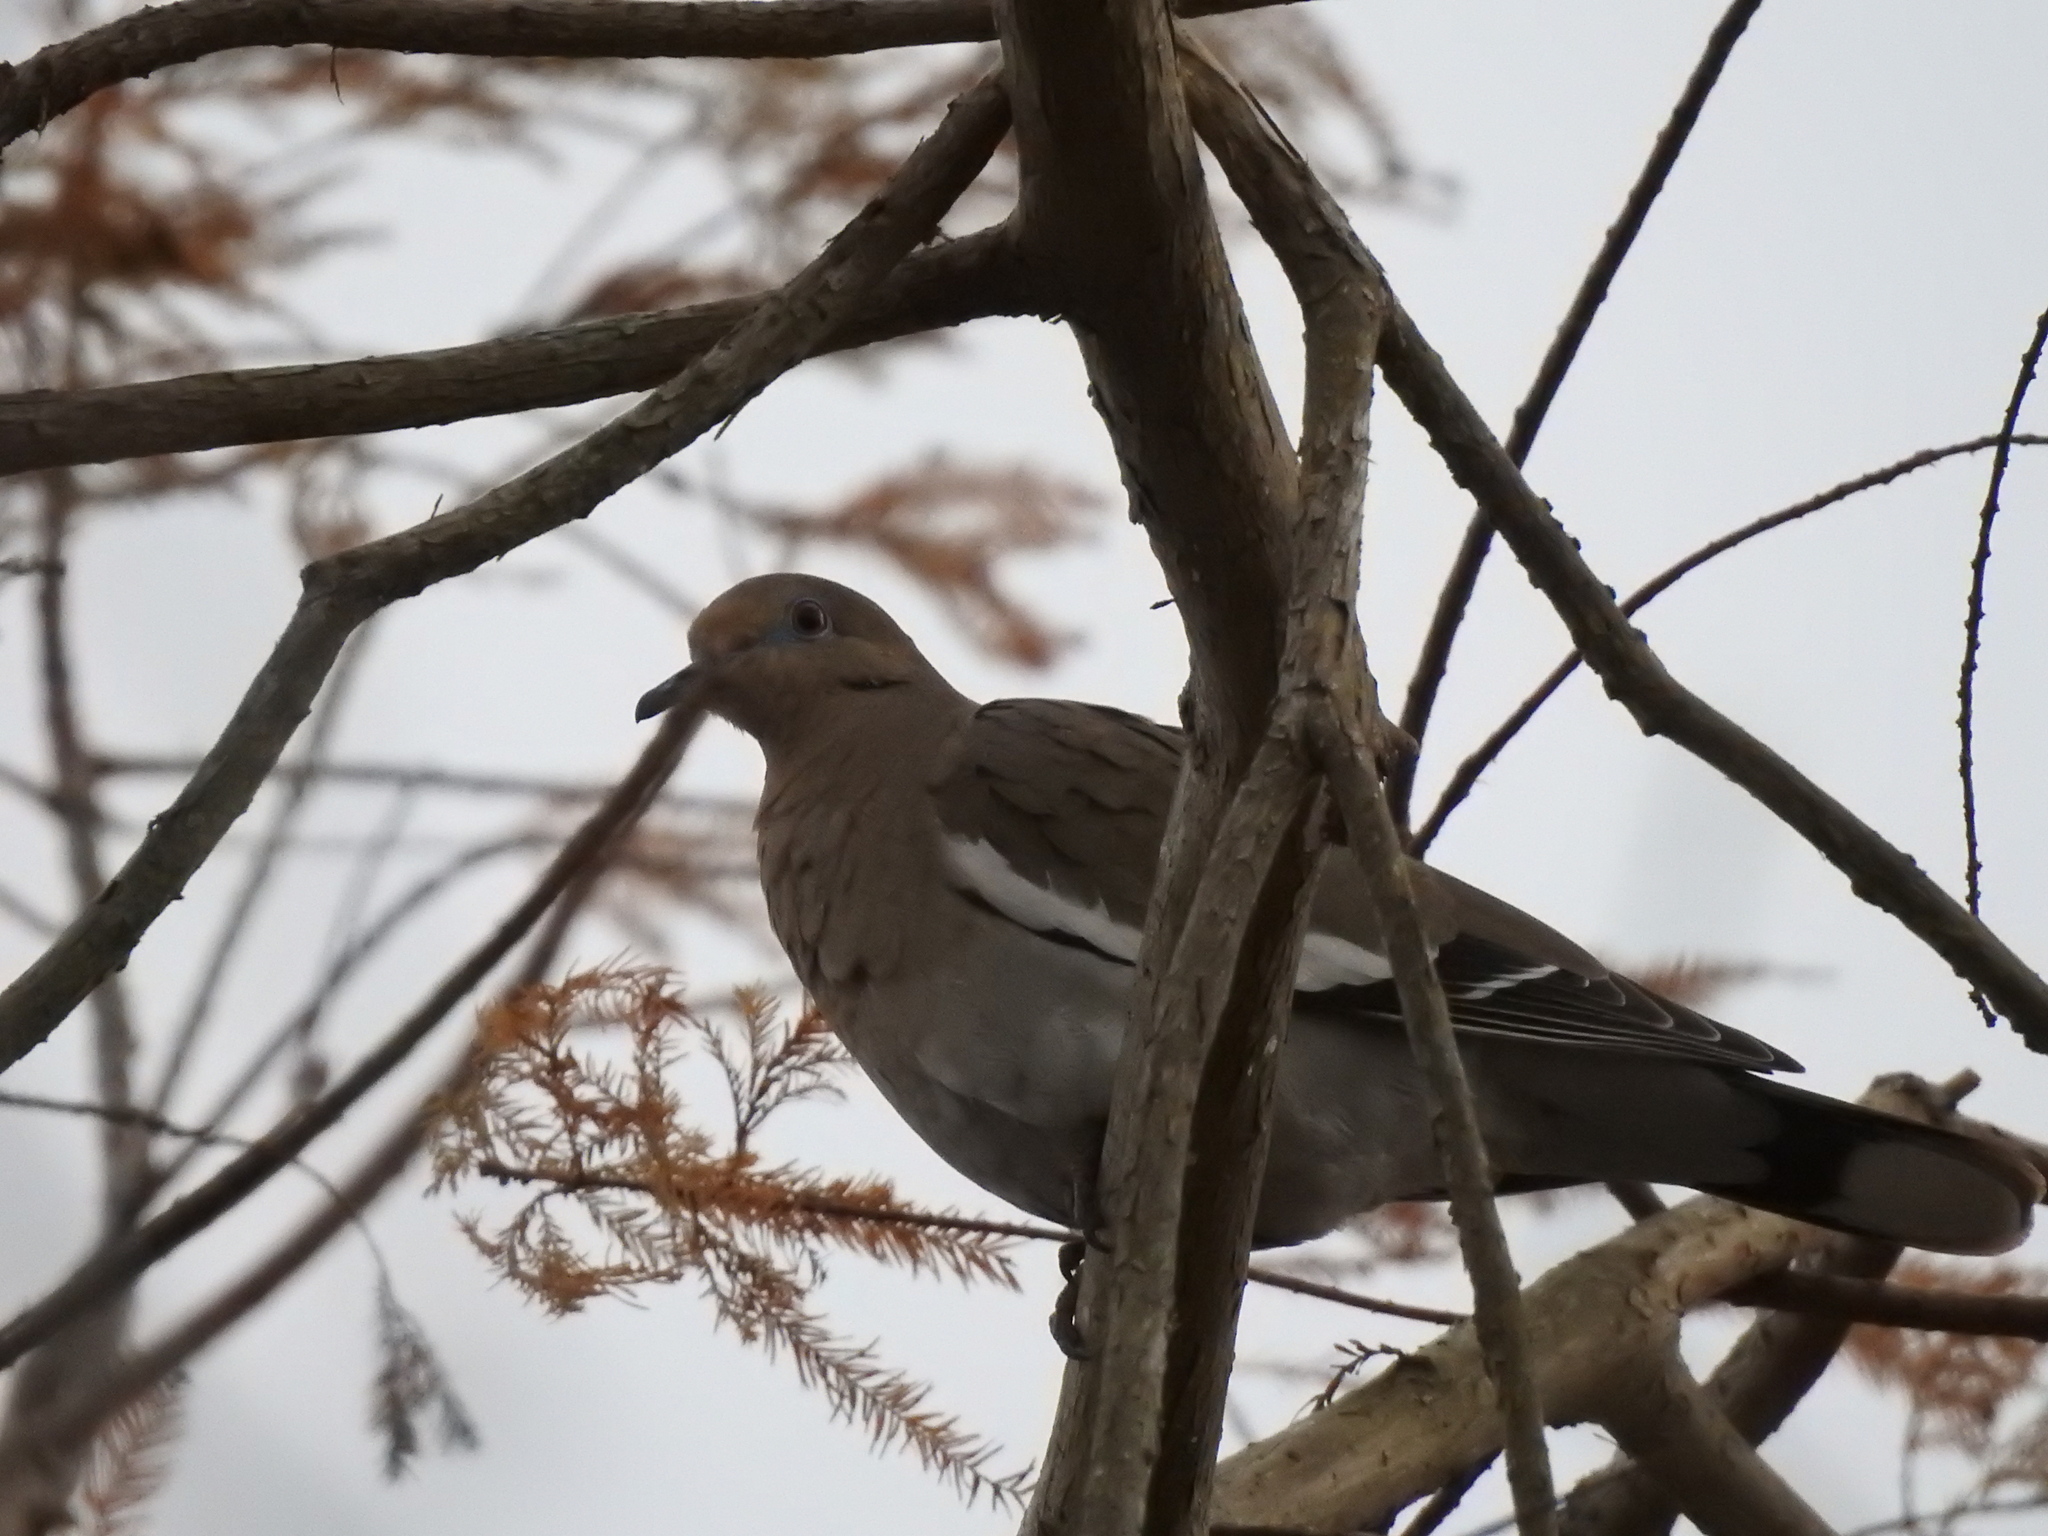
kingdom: Animalia
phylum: Chordata
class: Aves
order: Columbiformes
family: Columbidae
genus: Zenaida
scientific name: Zenaida asiatica
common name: White-winged dove
